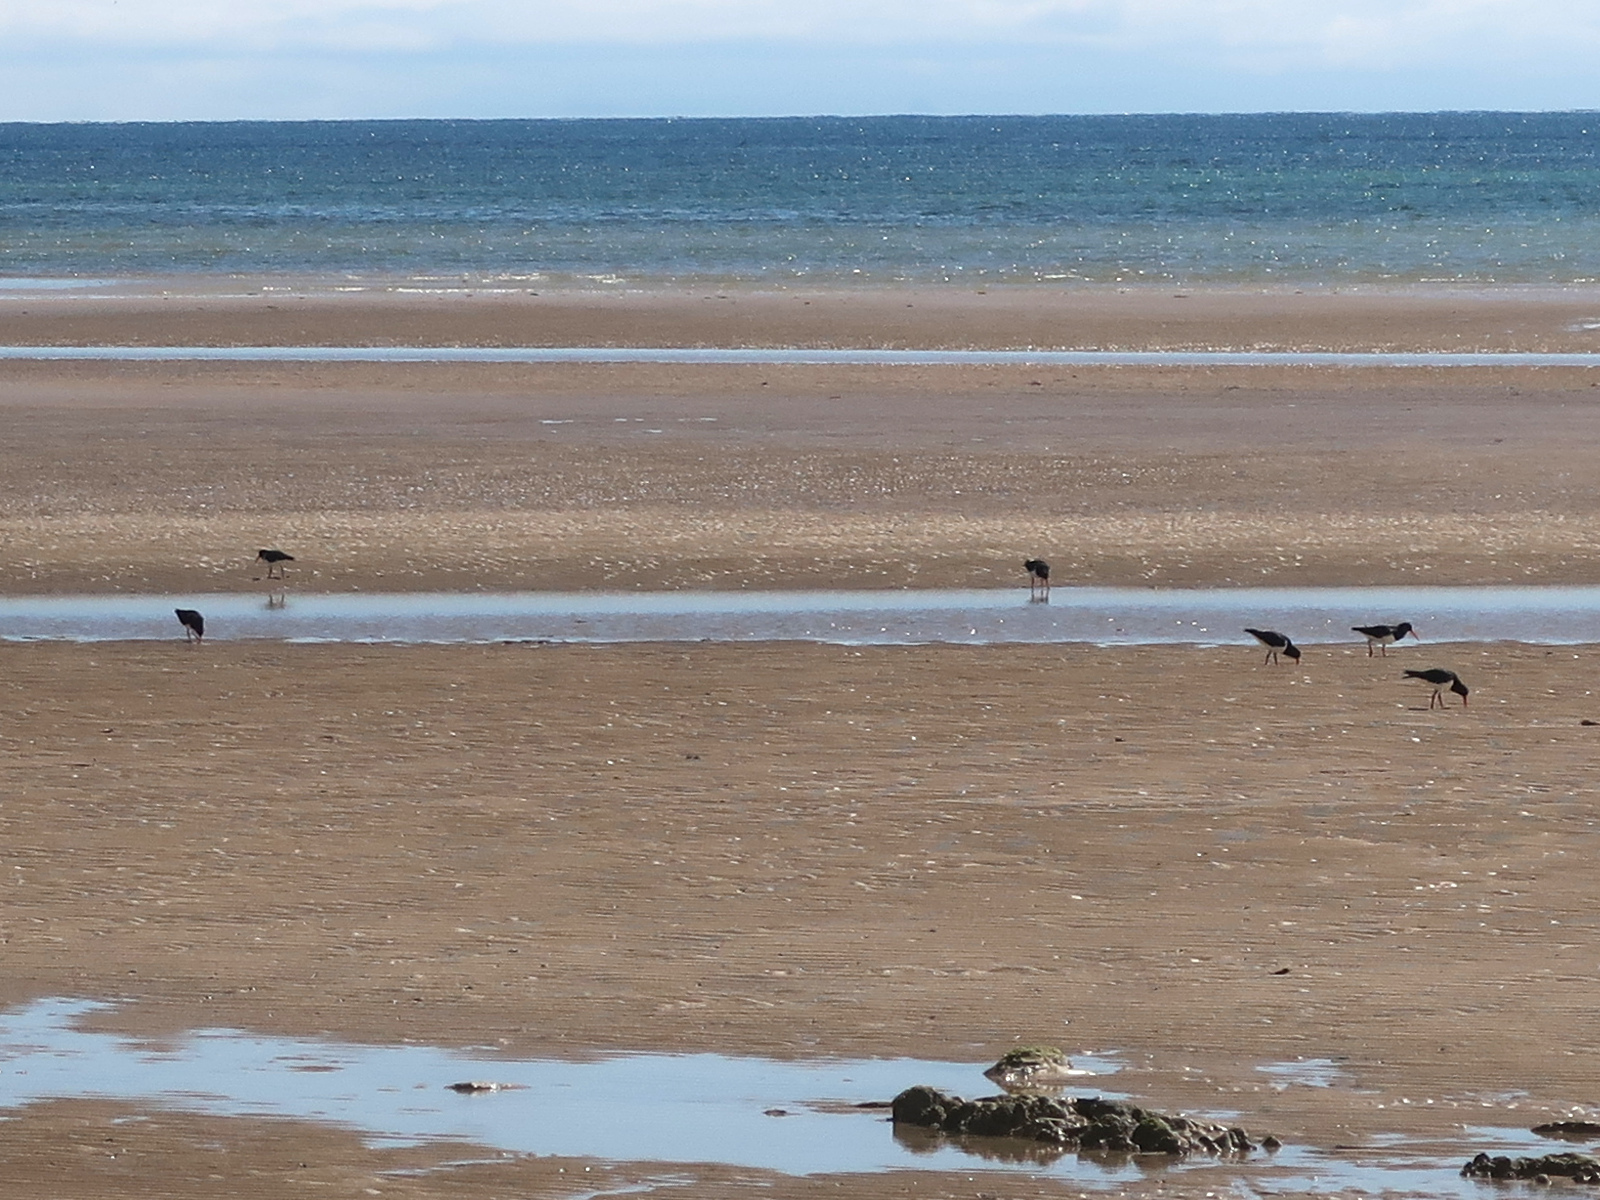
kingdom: Animalia
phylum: Chordata
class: Aves
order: Charadriiformes
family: Haematopodidae
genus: Haematopus
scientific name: Haematopus longirostris
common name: Pied oystercatcher
